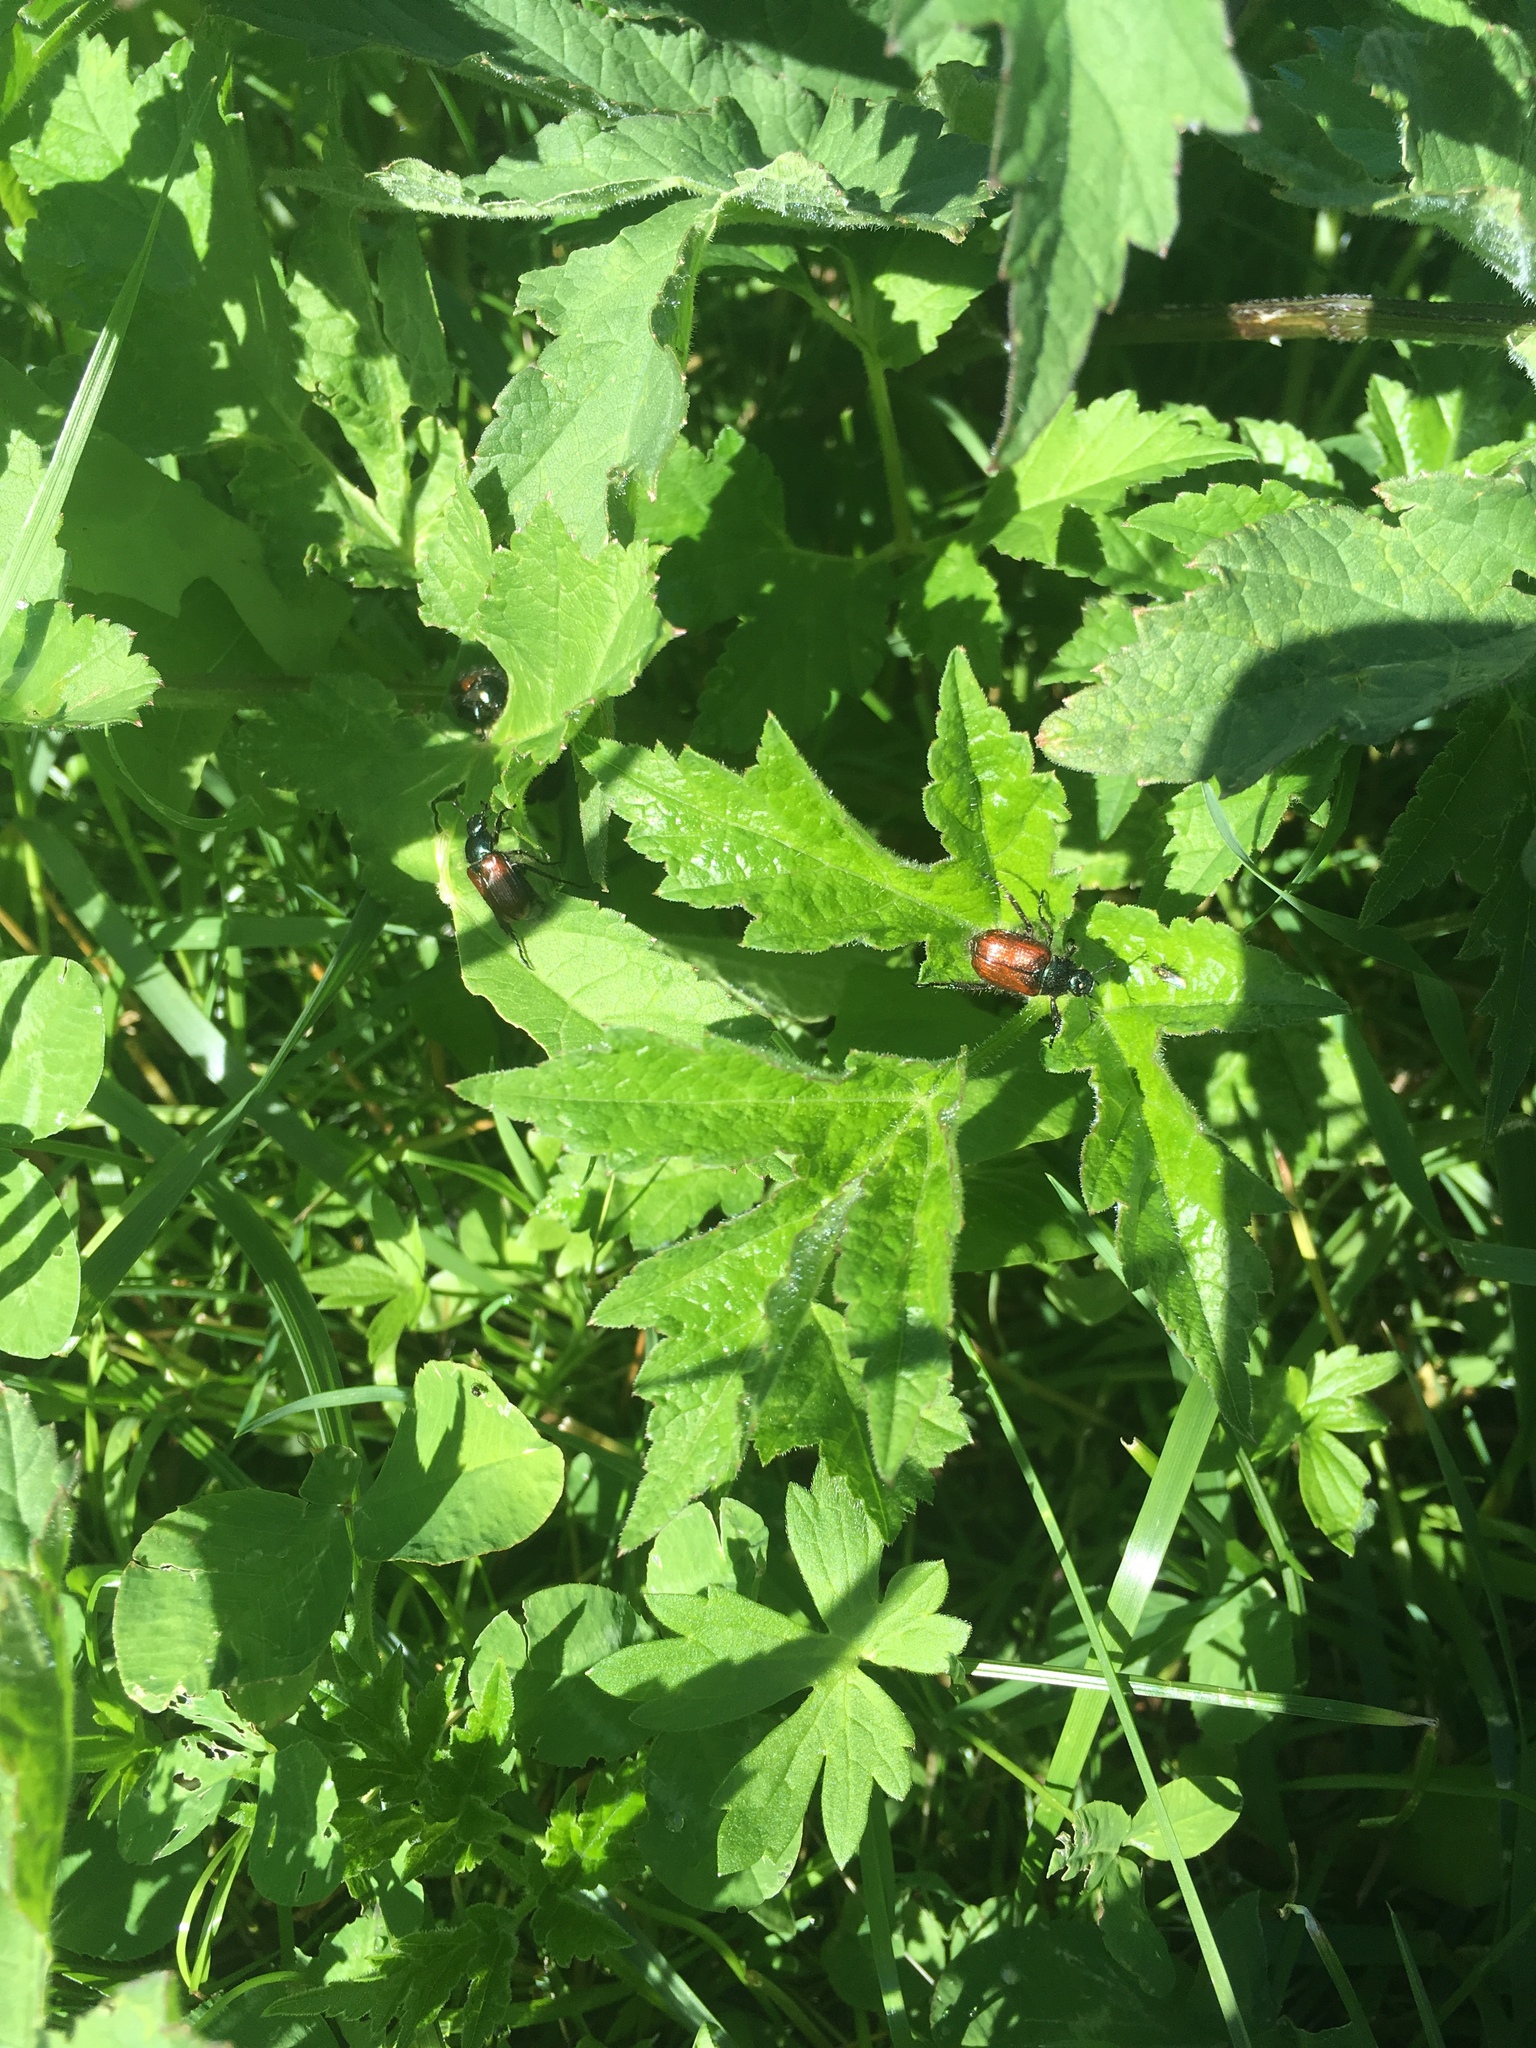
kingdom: Animalia
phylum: Arthropoda
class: Insecta
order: Coleoptera
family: Scarabaeidae
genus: Phyllopertha
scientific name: Phyllopertha horticola
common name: Garden chafer
